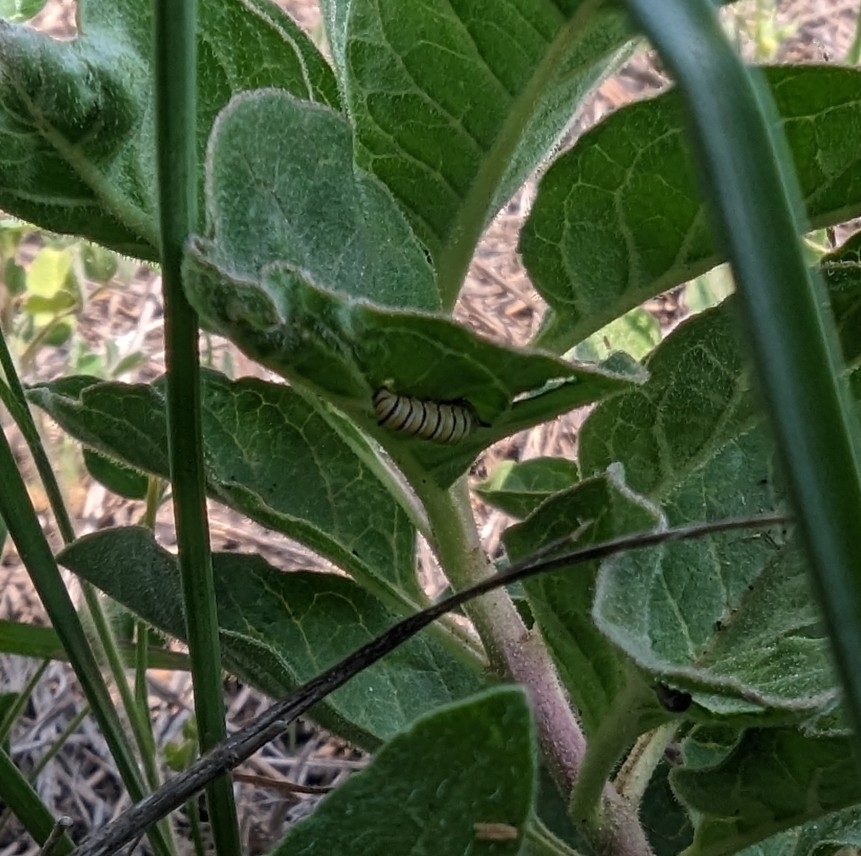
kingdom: Animalia
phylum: Arthropoda
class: Insecta
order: Lepidoptera
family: Nymphalidae
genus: Danaus
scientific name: Danaus plexippus
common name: Monarch
